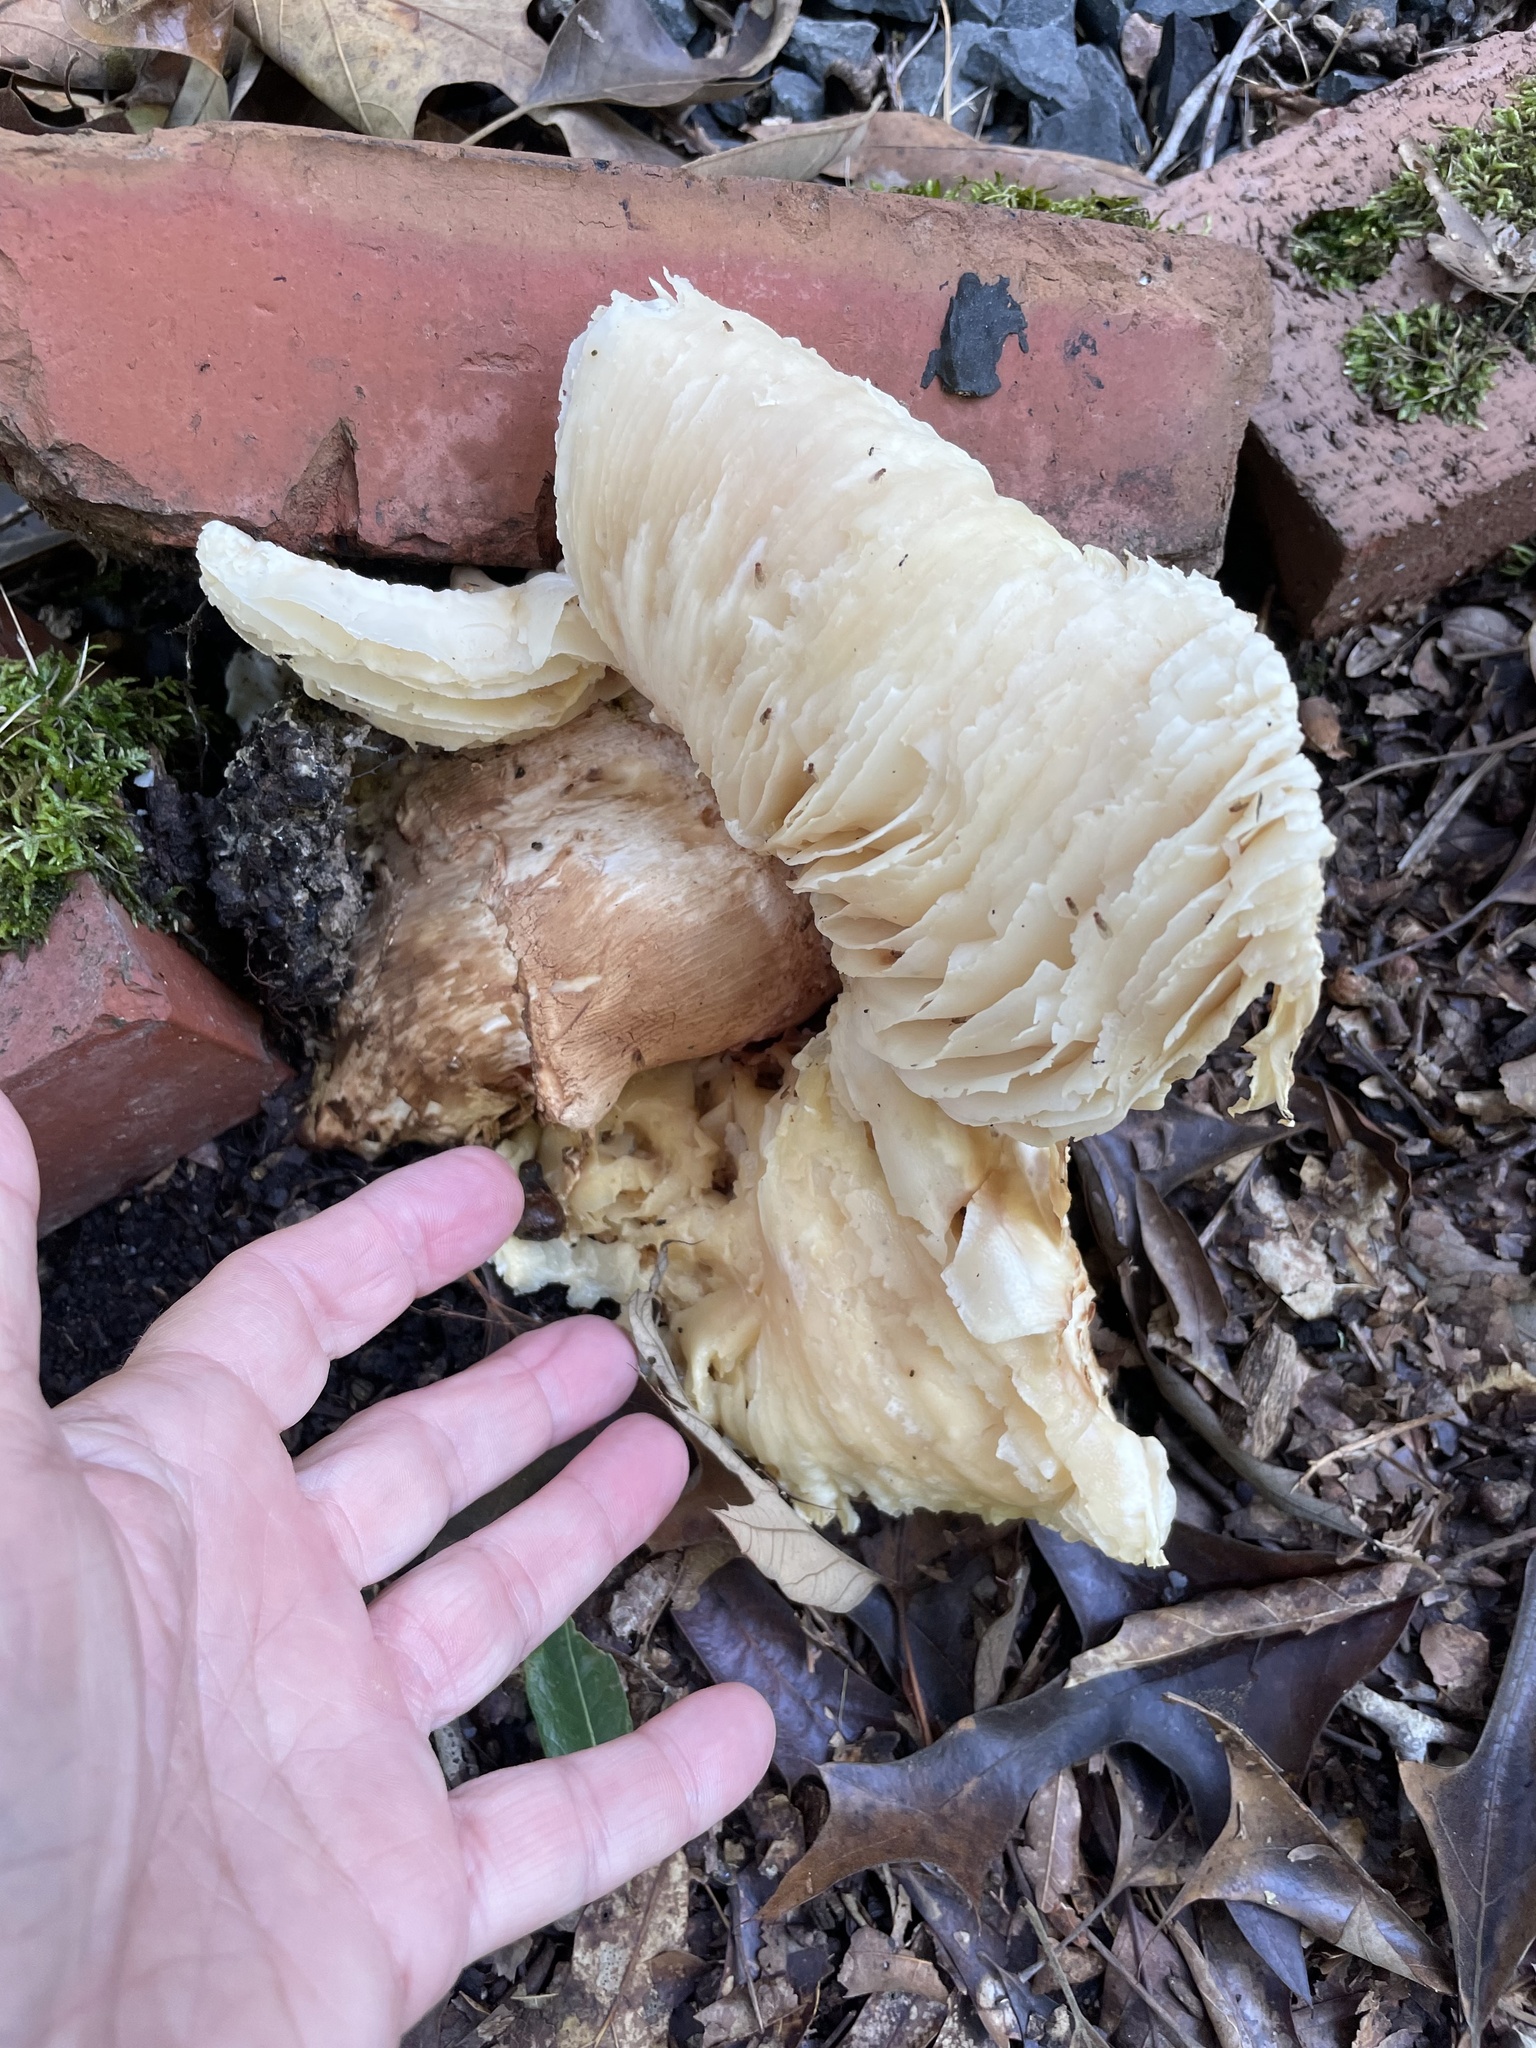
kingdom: Fungi
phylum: Basidiomycota
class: Agaricomycetes
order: Polyporales
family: Polyporaceae
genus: Lentinus
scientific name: Lentinus levis
